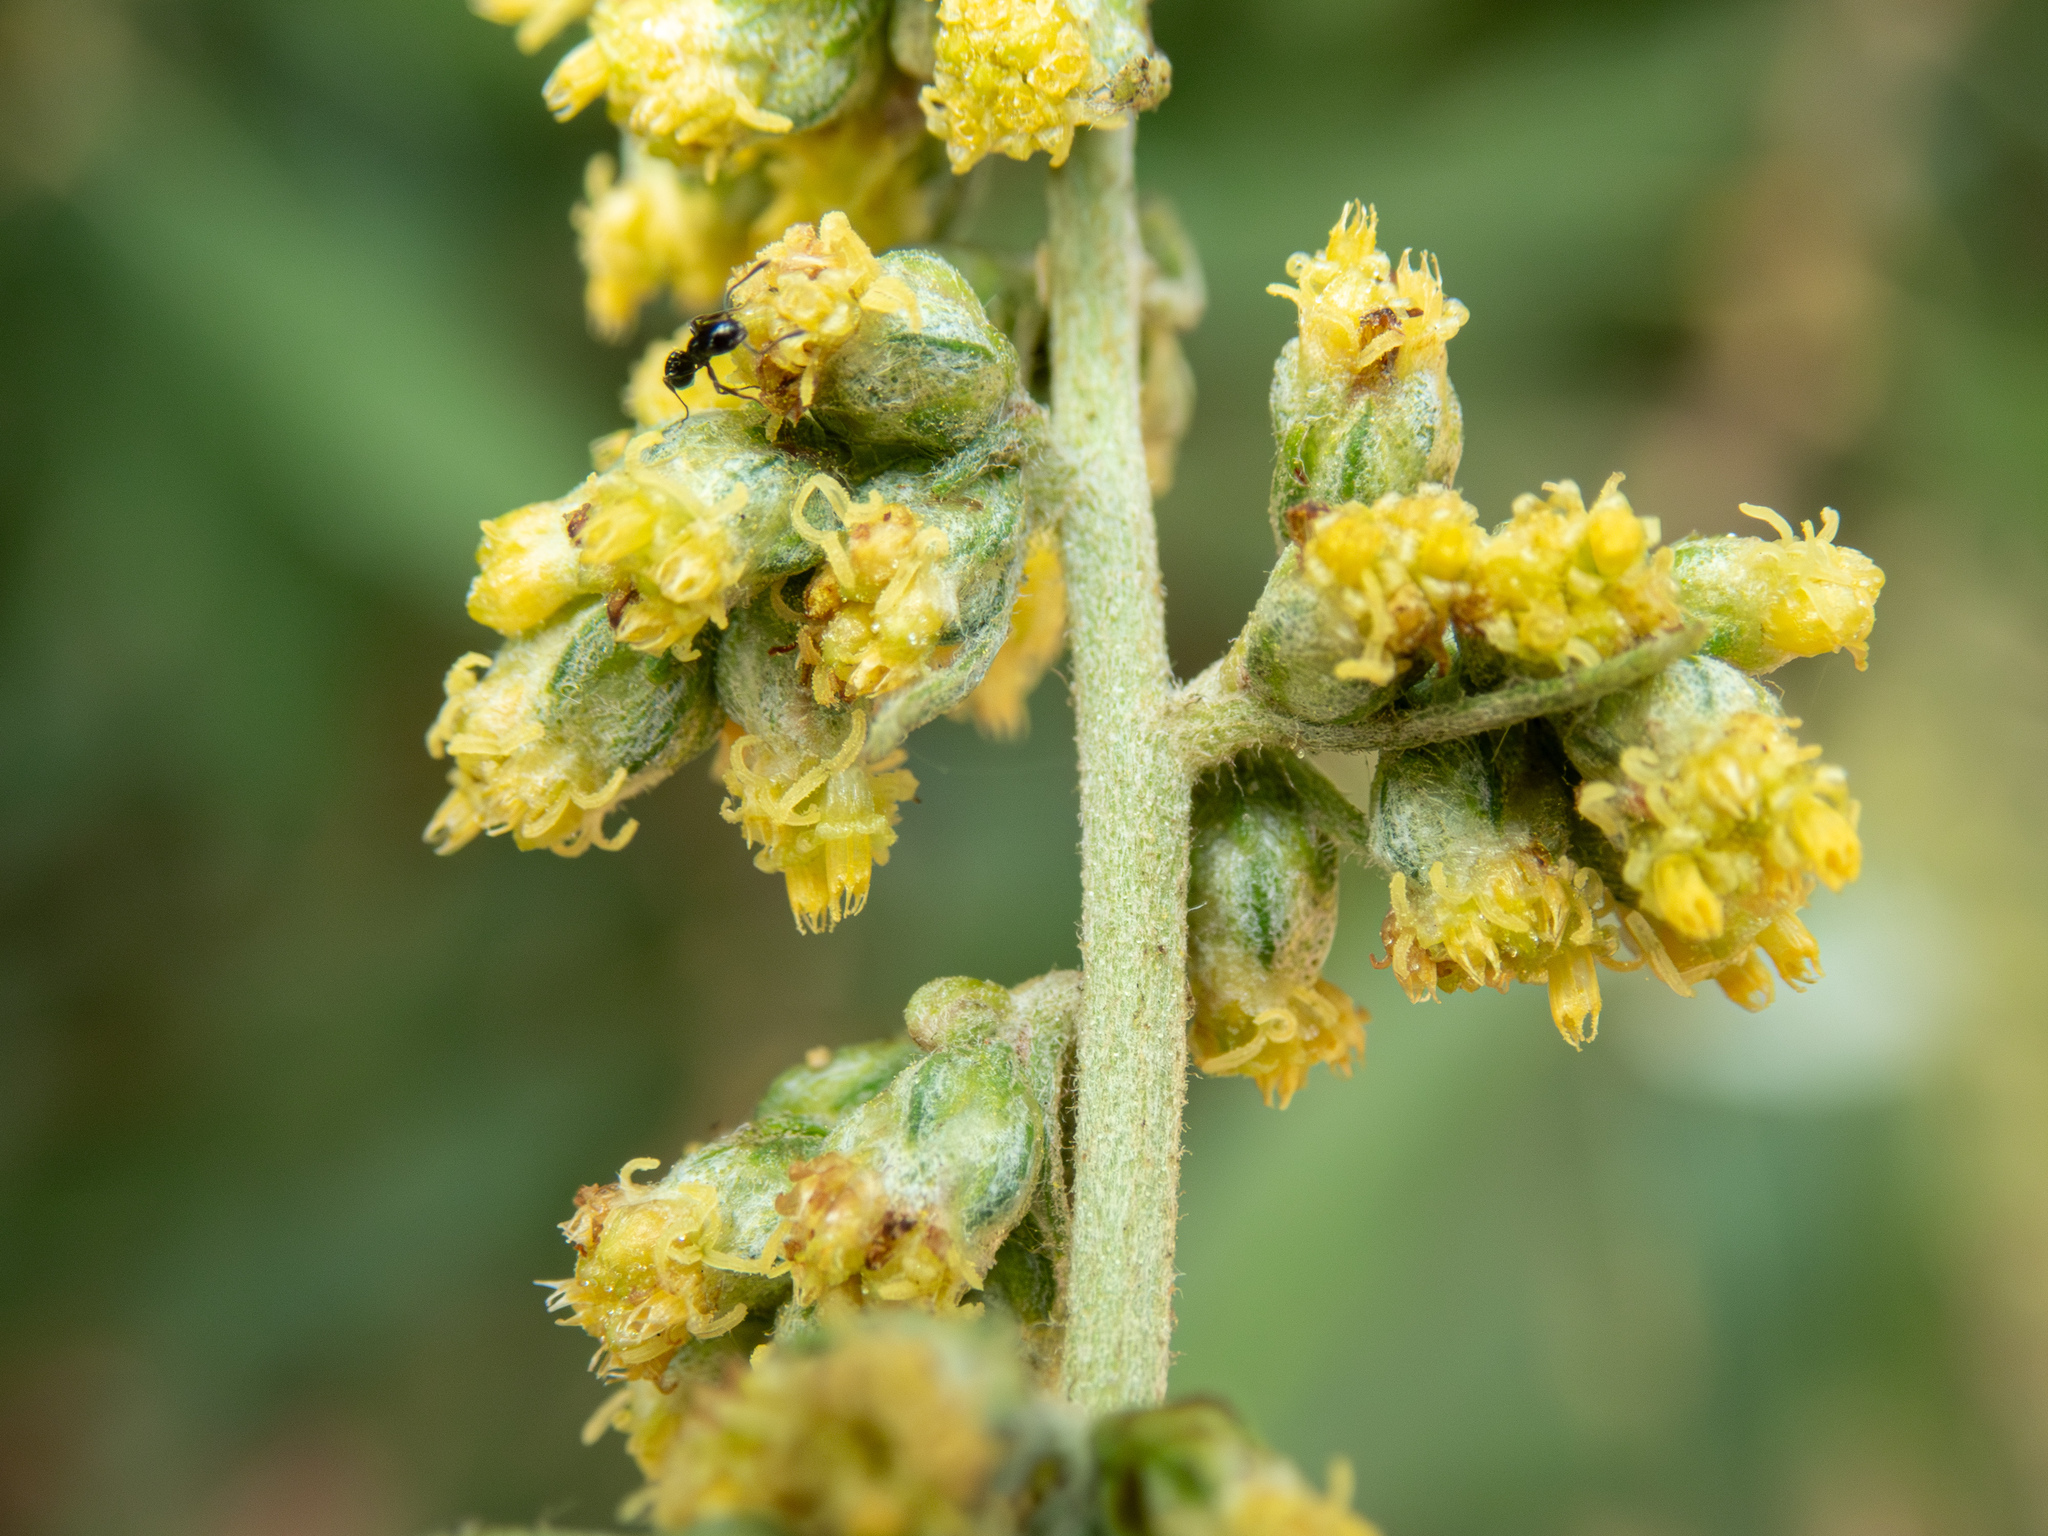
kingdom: Plantae
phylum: Tracheophyta
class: Magnoliopsida
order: Asterales
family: Asteraceae
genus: Artemisia
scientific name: Artemisia douglasiana
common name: Northwest mugwort
